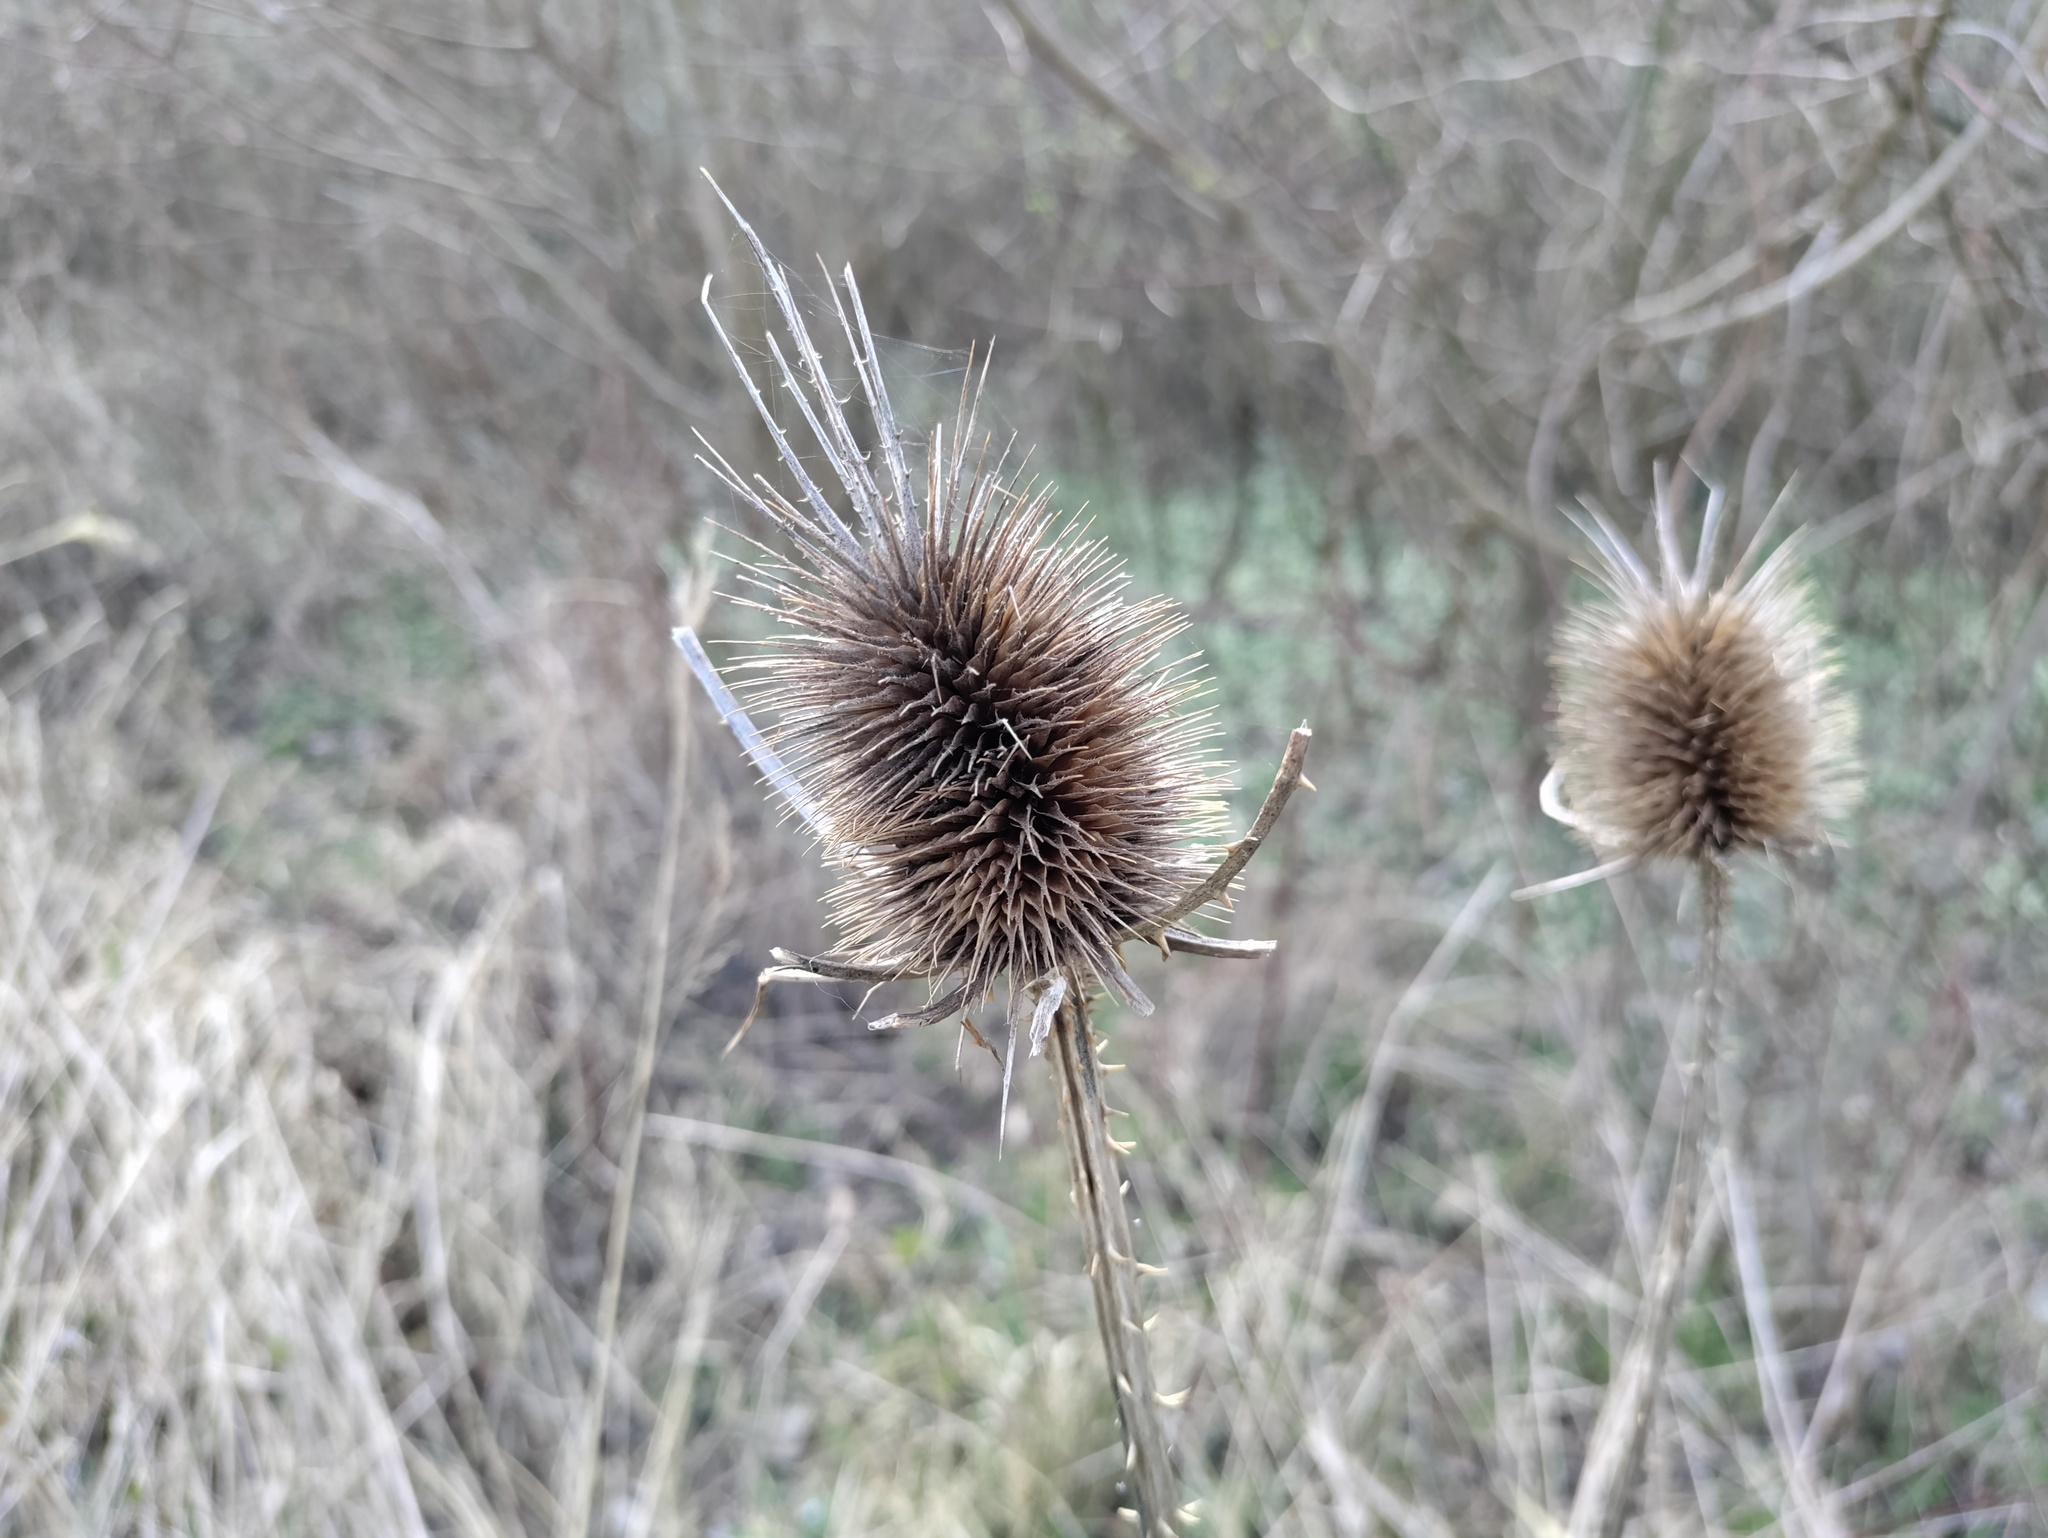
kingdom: Plantae
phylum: Tracheophyta
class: Magnoliopsida
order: Dipsacales
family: Caprifoliaceae
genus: Dipsacus
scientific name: Dipsacus fullonum
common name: Teasel
